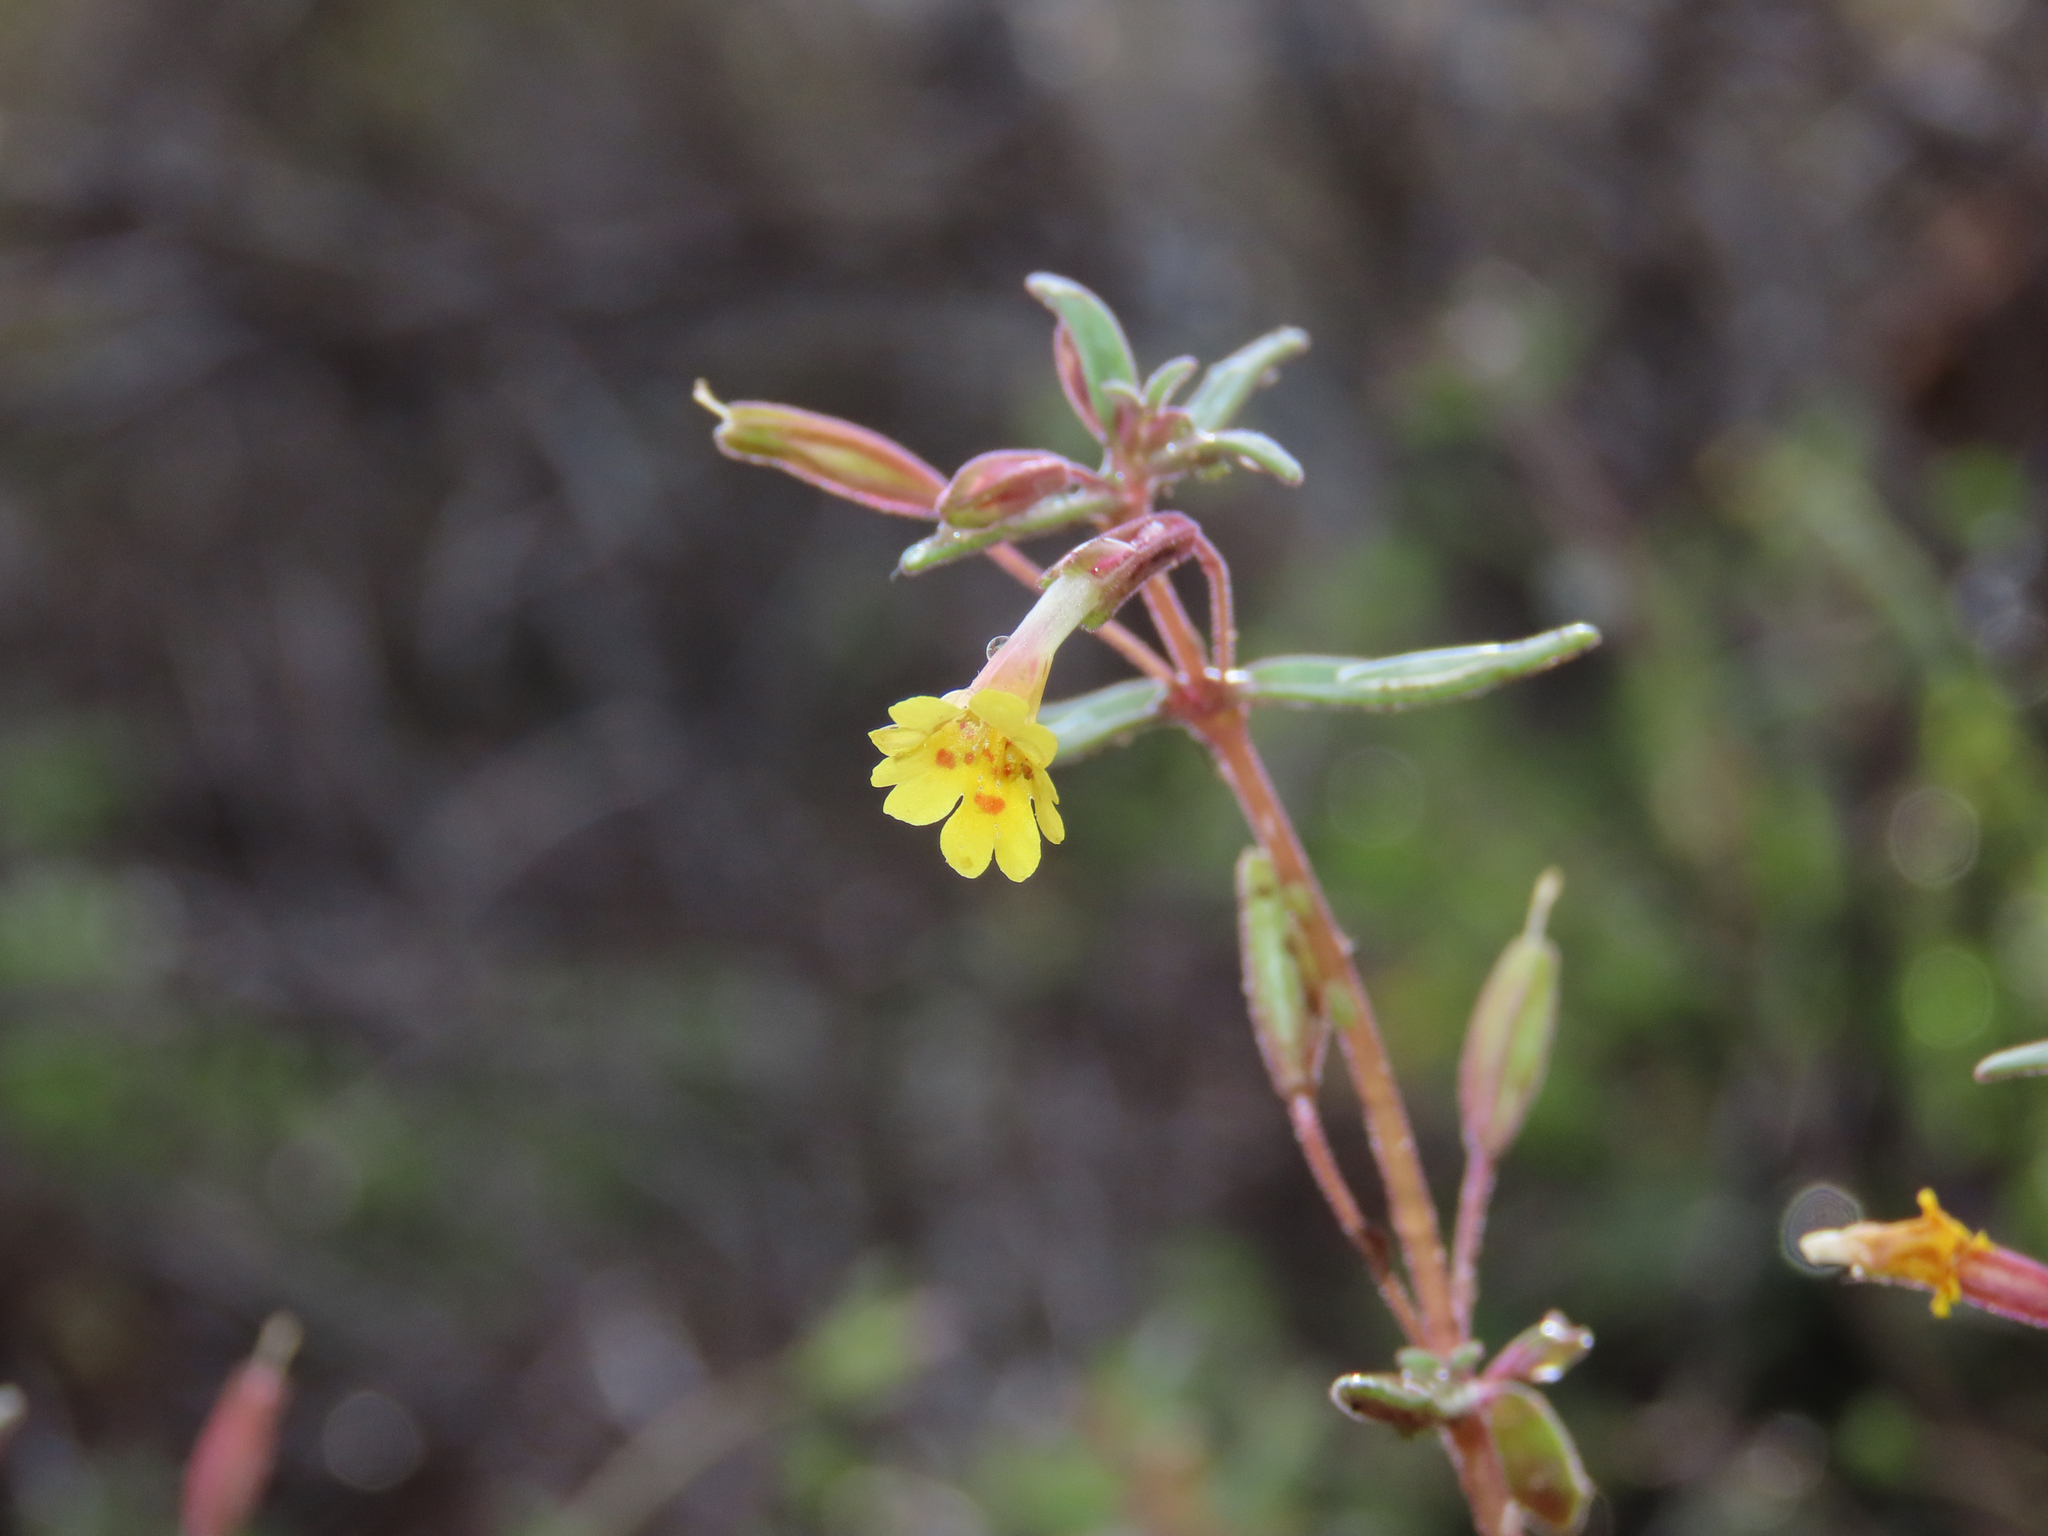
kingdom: Plantae
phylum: Tracheophyta
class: Magnoliopsida
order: Lamiales
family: Phrymaceae
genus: Erythranthe
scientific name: Erythranthe rubella
